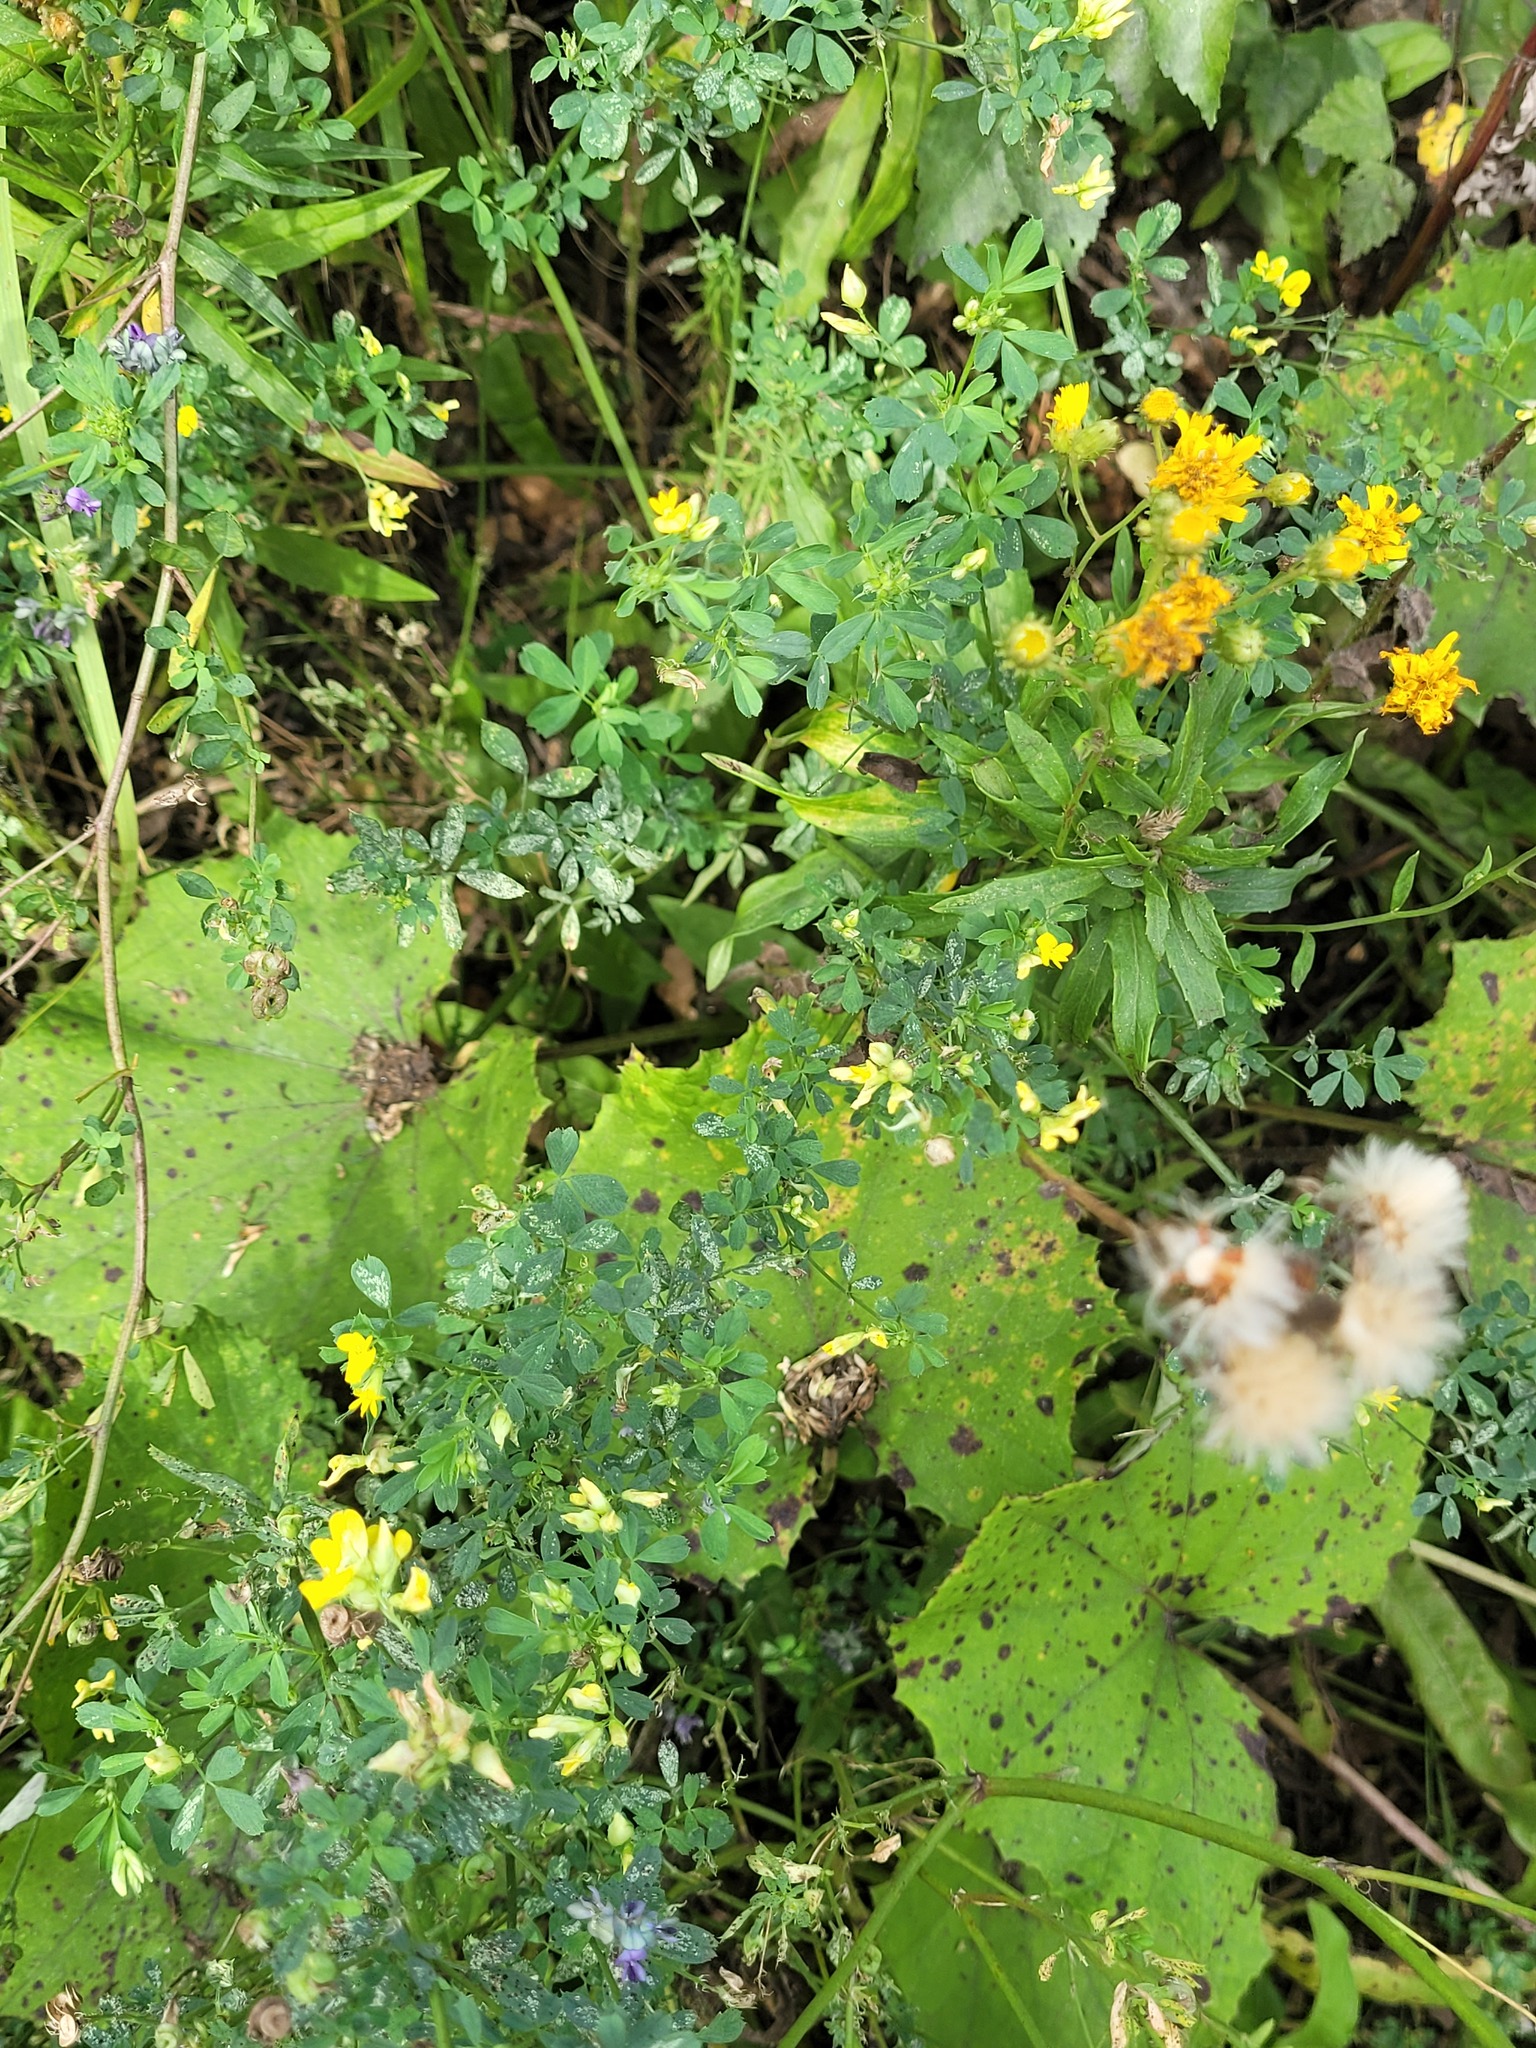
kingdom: Plantae
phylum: Tracheophyta
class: Magnoliopsida
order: Fabales
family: Fabaceae
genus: Medicago
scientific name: Medicago falcata
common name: Sickle medick
